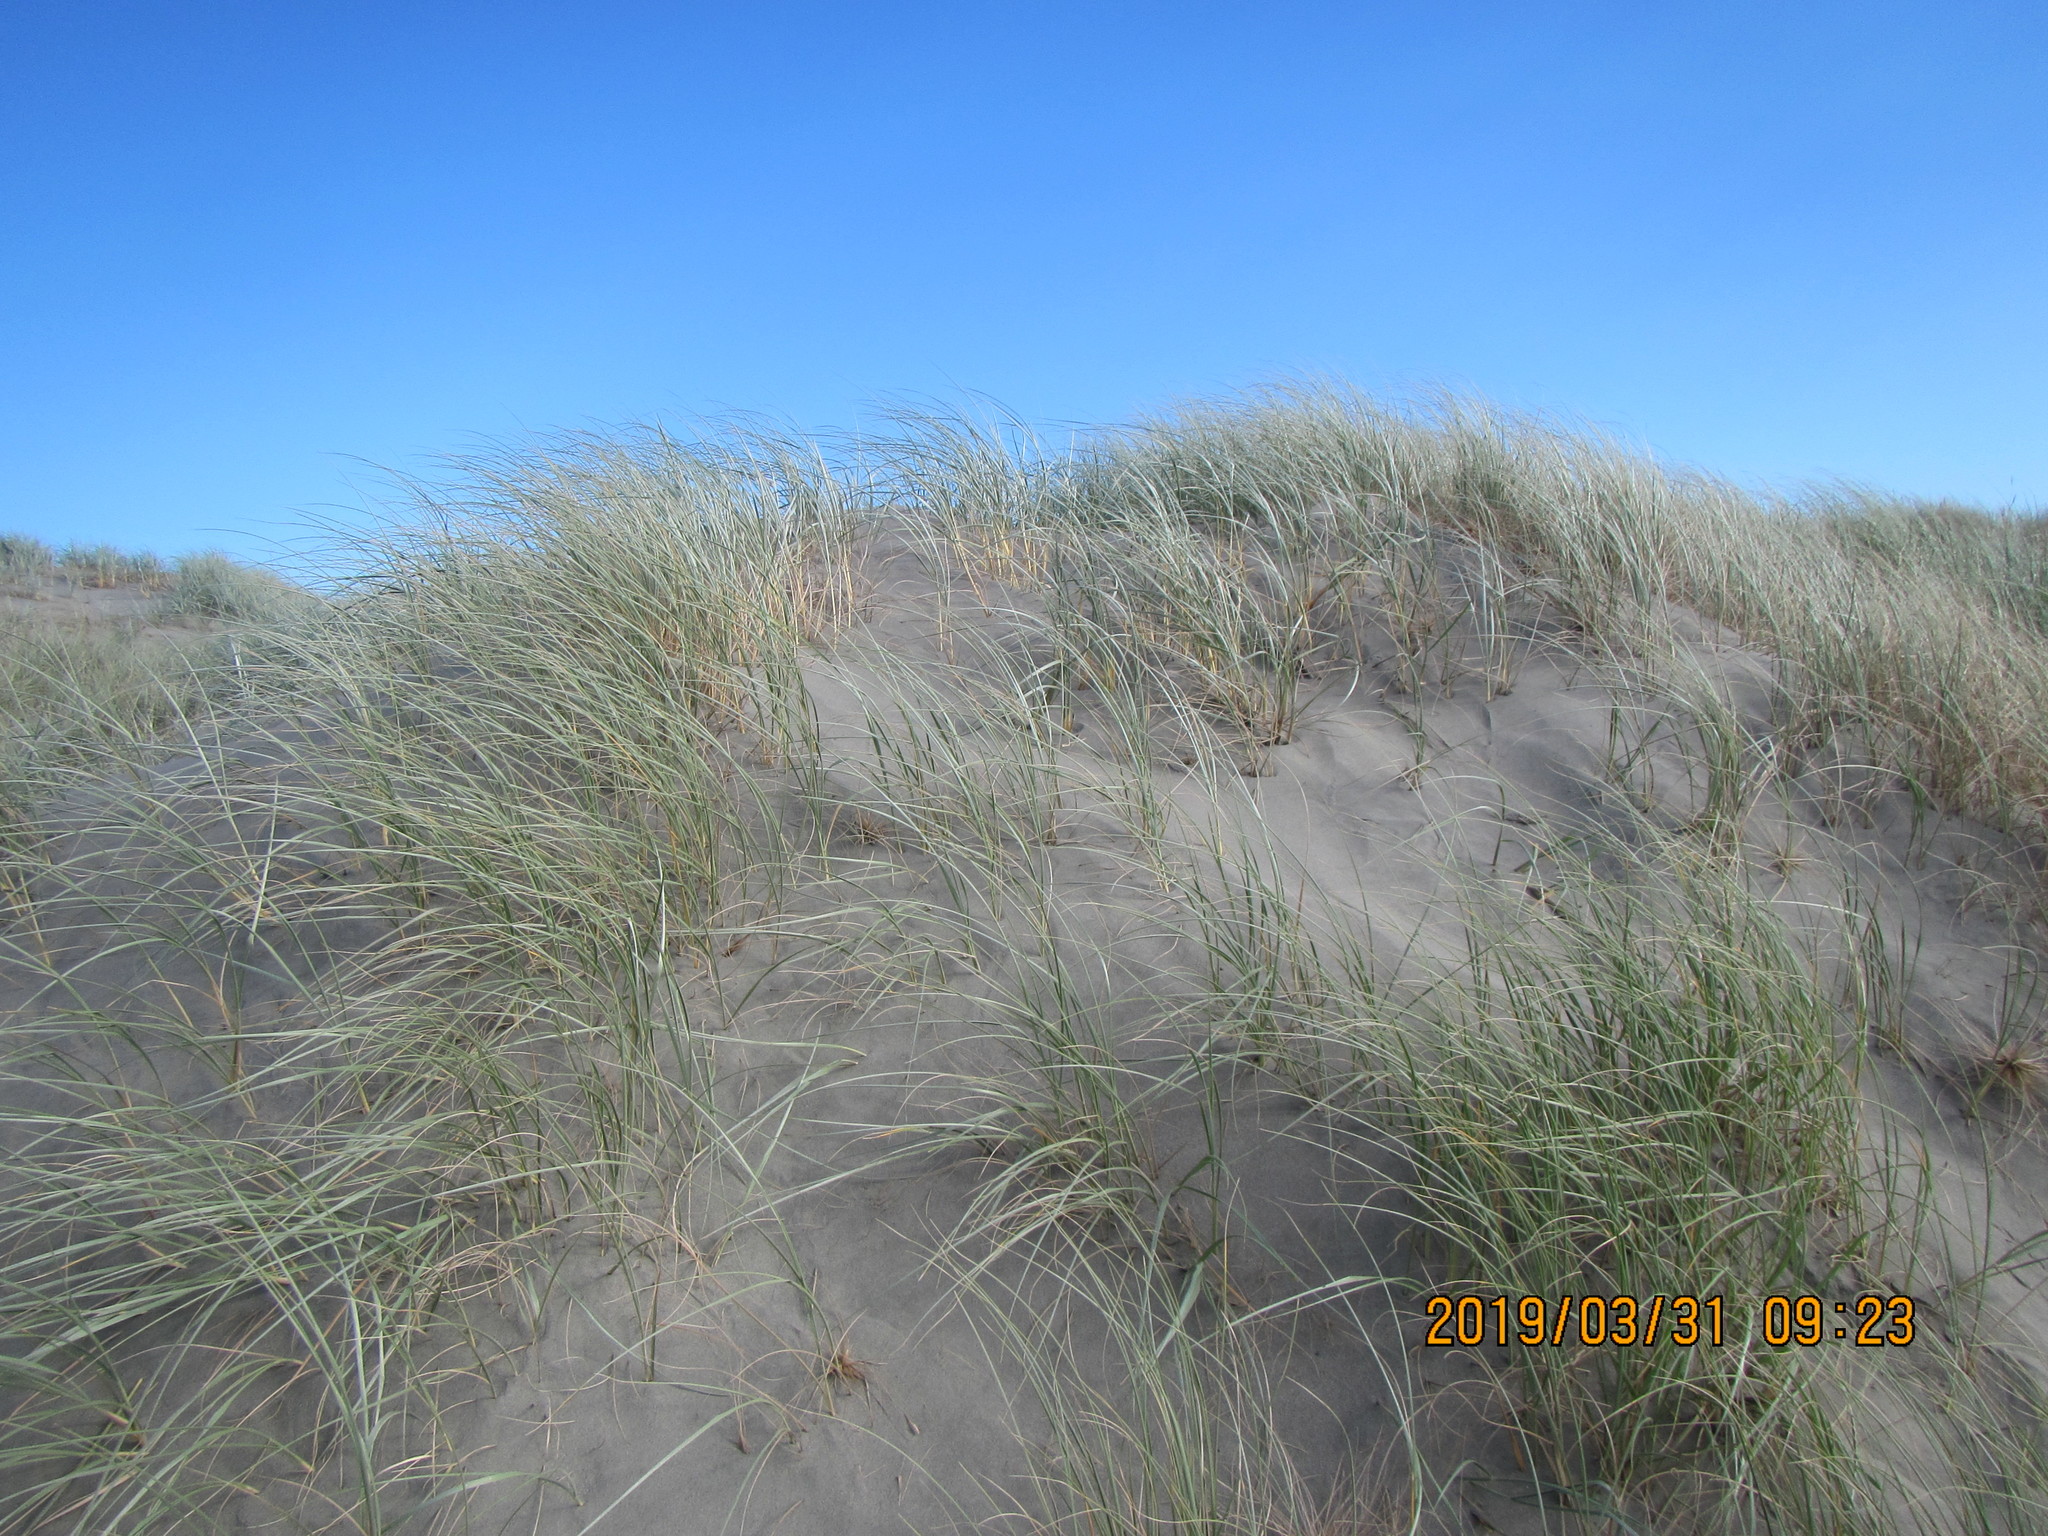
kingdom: Plantae
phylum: Tracheophyta
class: Liliopsida
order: Poales
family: Poaceae
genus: Spinifex
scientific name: Spinifex sericeus
